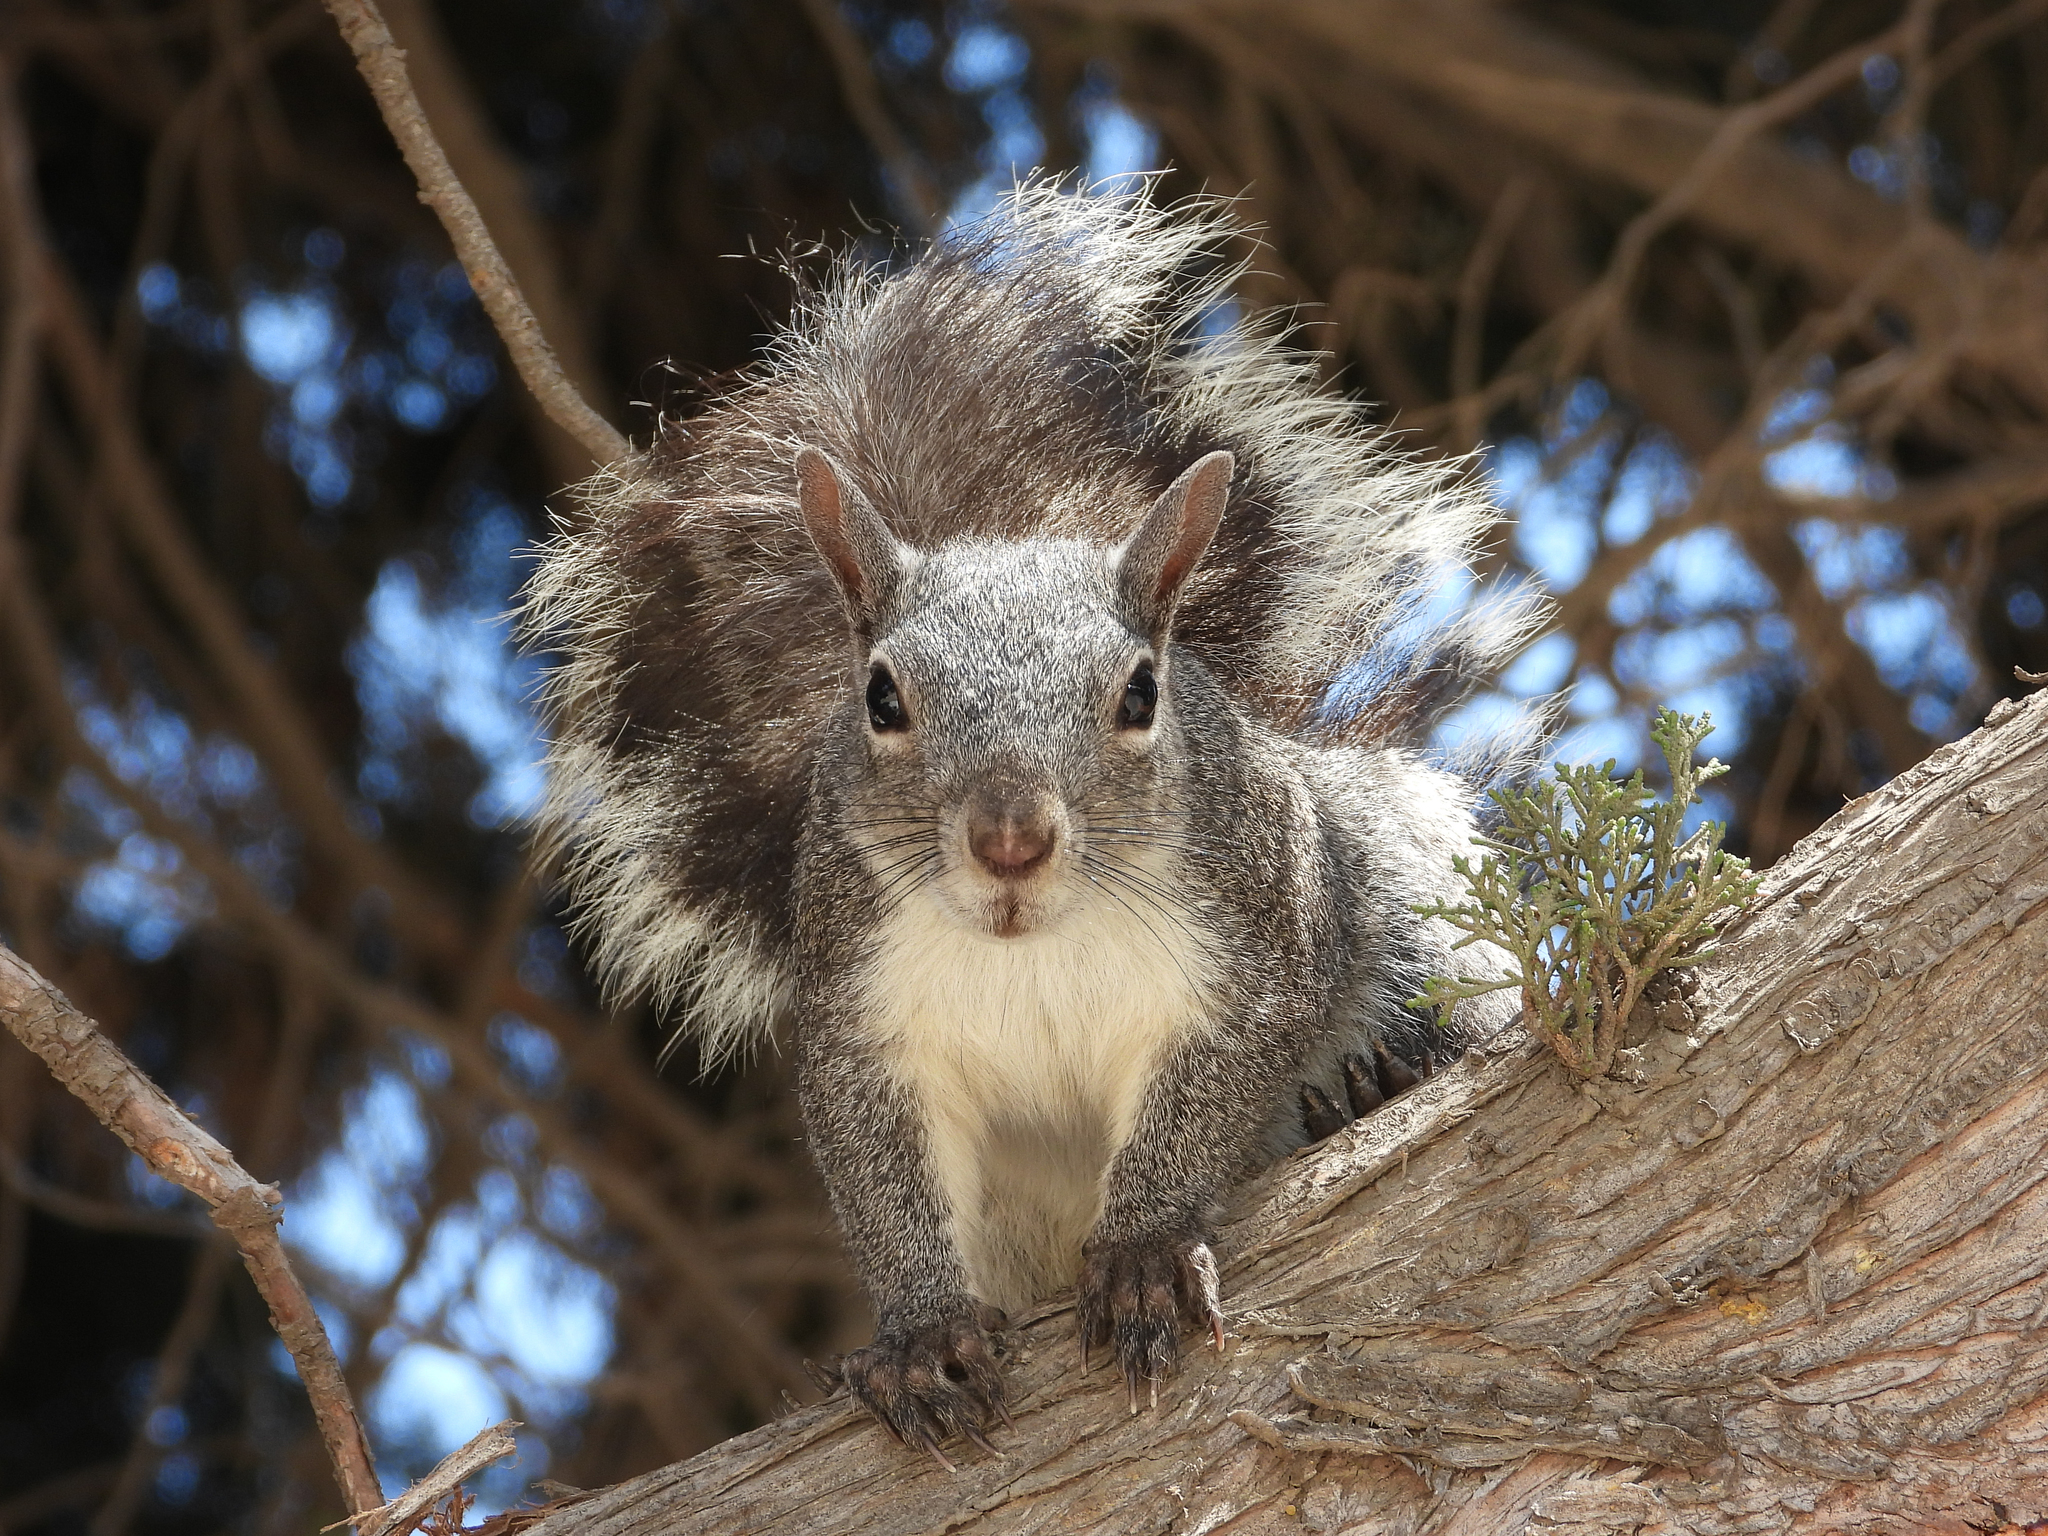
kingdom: Animalia
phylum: Chordata
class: Mammalia
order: Rodentia
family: Sciuridae
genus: Sciurus
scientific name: Sciurus griseus
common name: Western gray squirrel
